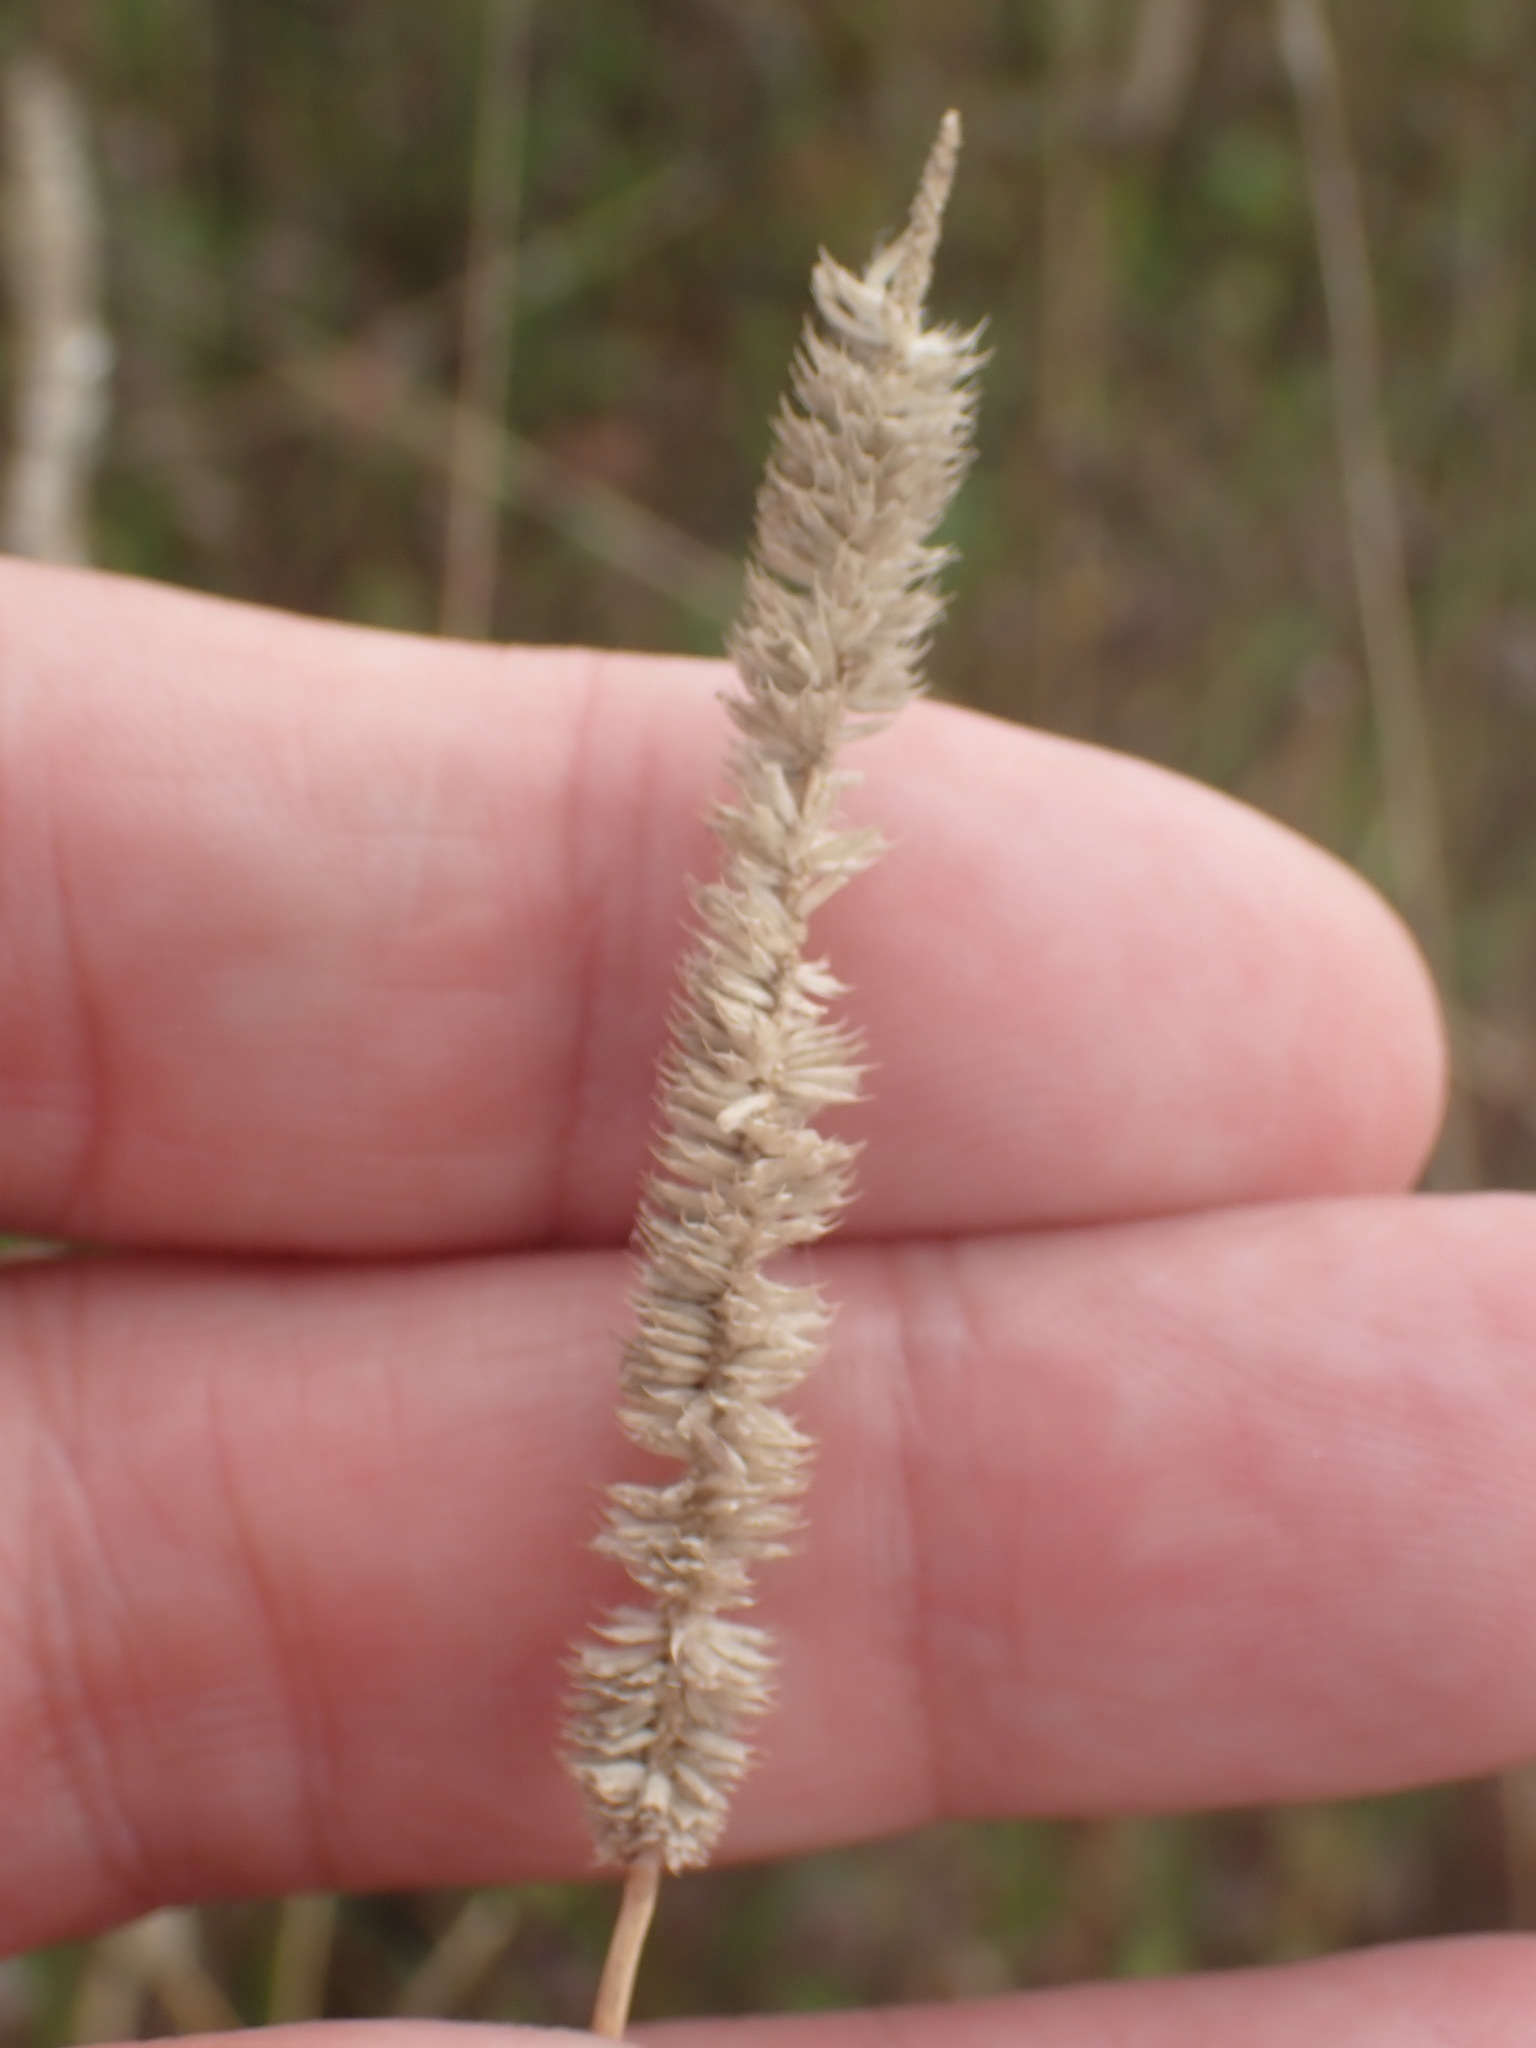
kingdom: Plantae
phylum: Tracheophyta
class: Liliopsida
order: Poales
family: Poaceae
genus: Phleum
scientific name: Phleum pratense
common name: Timothy grass
